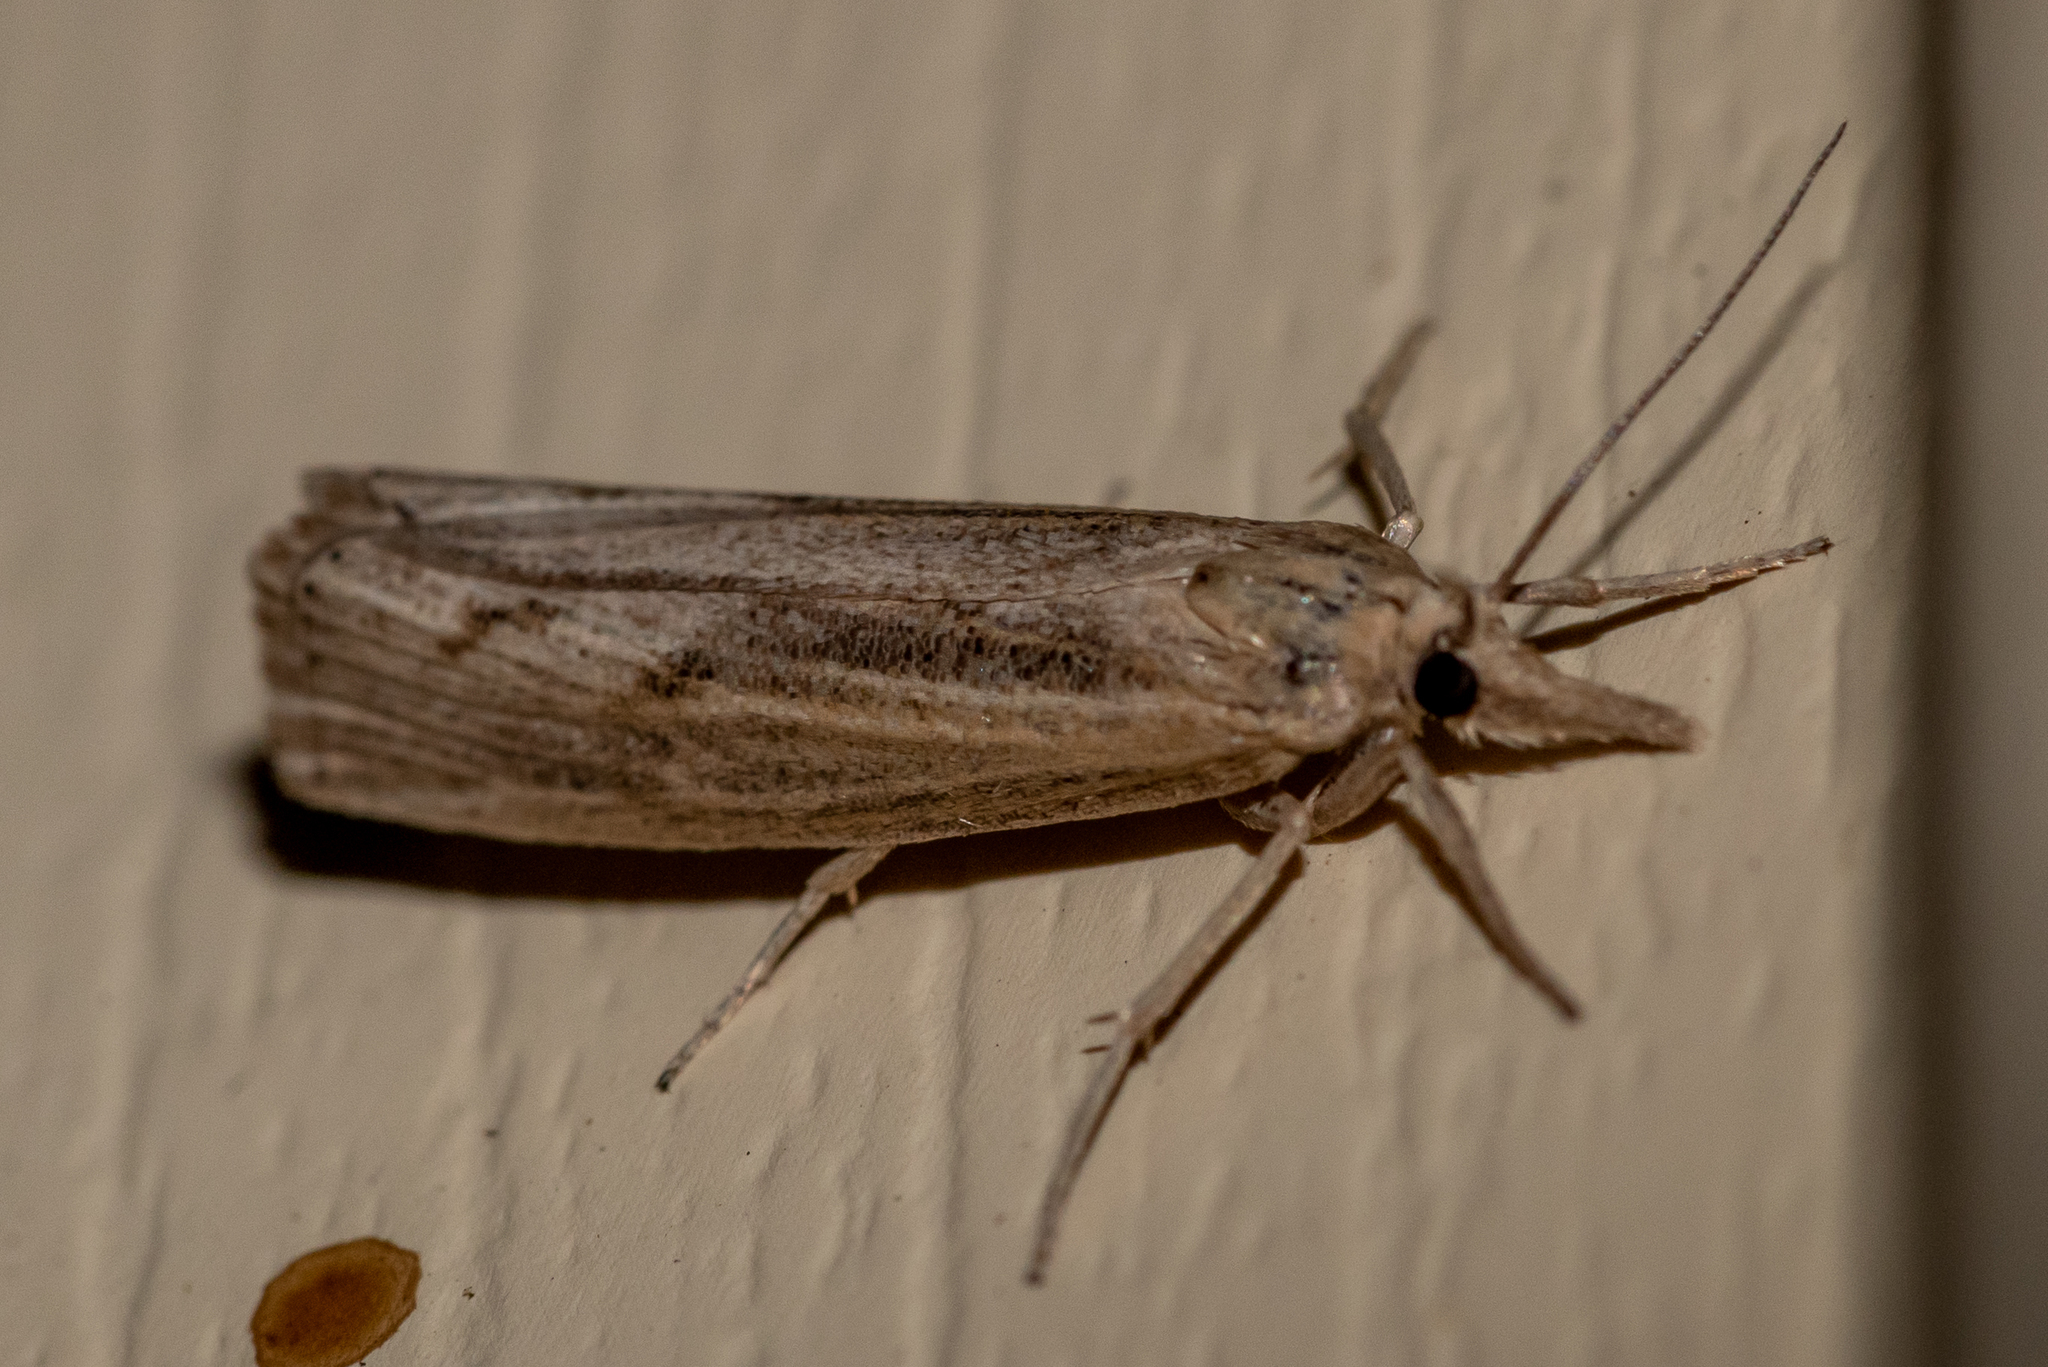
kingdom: Animalia
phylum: Arthropoda
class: Insecta
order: Lepidoptera
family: Crambidae
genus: Pediasia
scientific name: Pediasia trisecta
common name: Sod webworm moth
